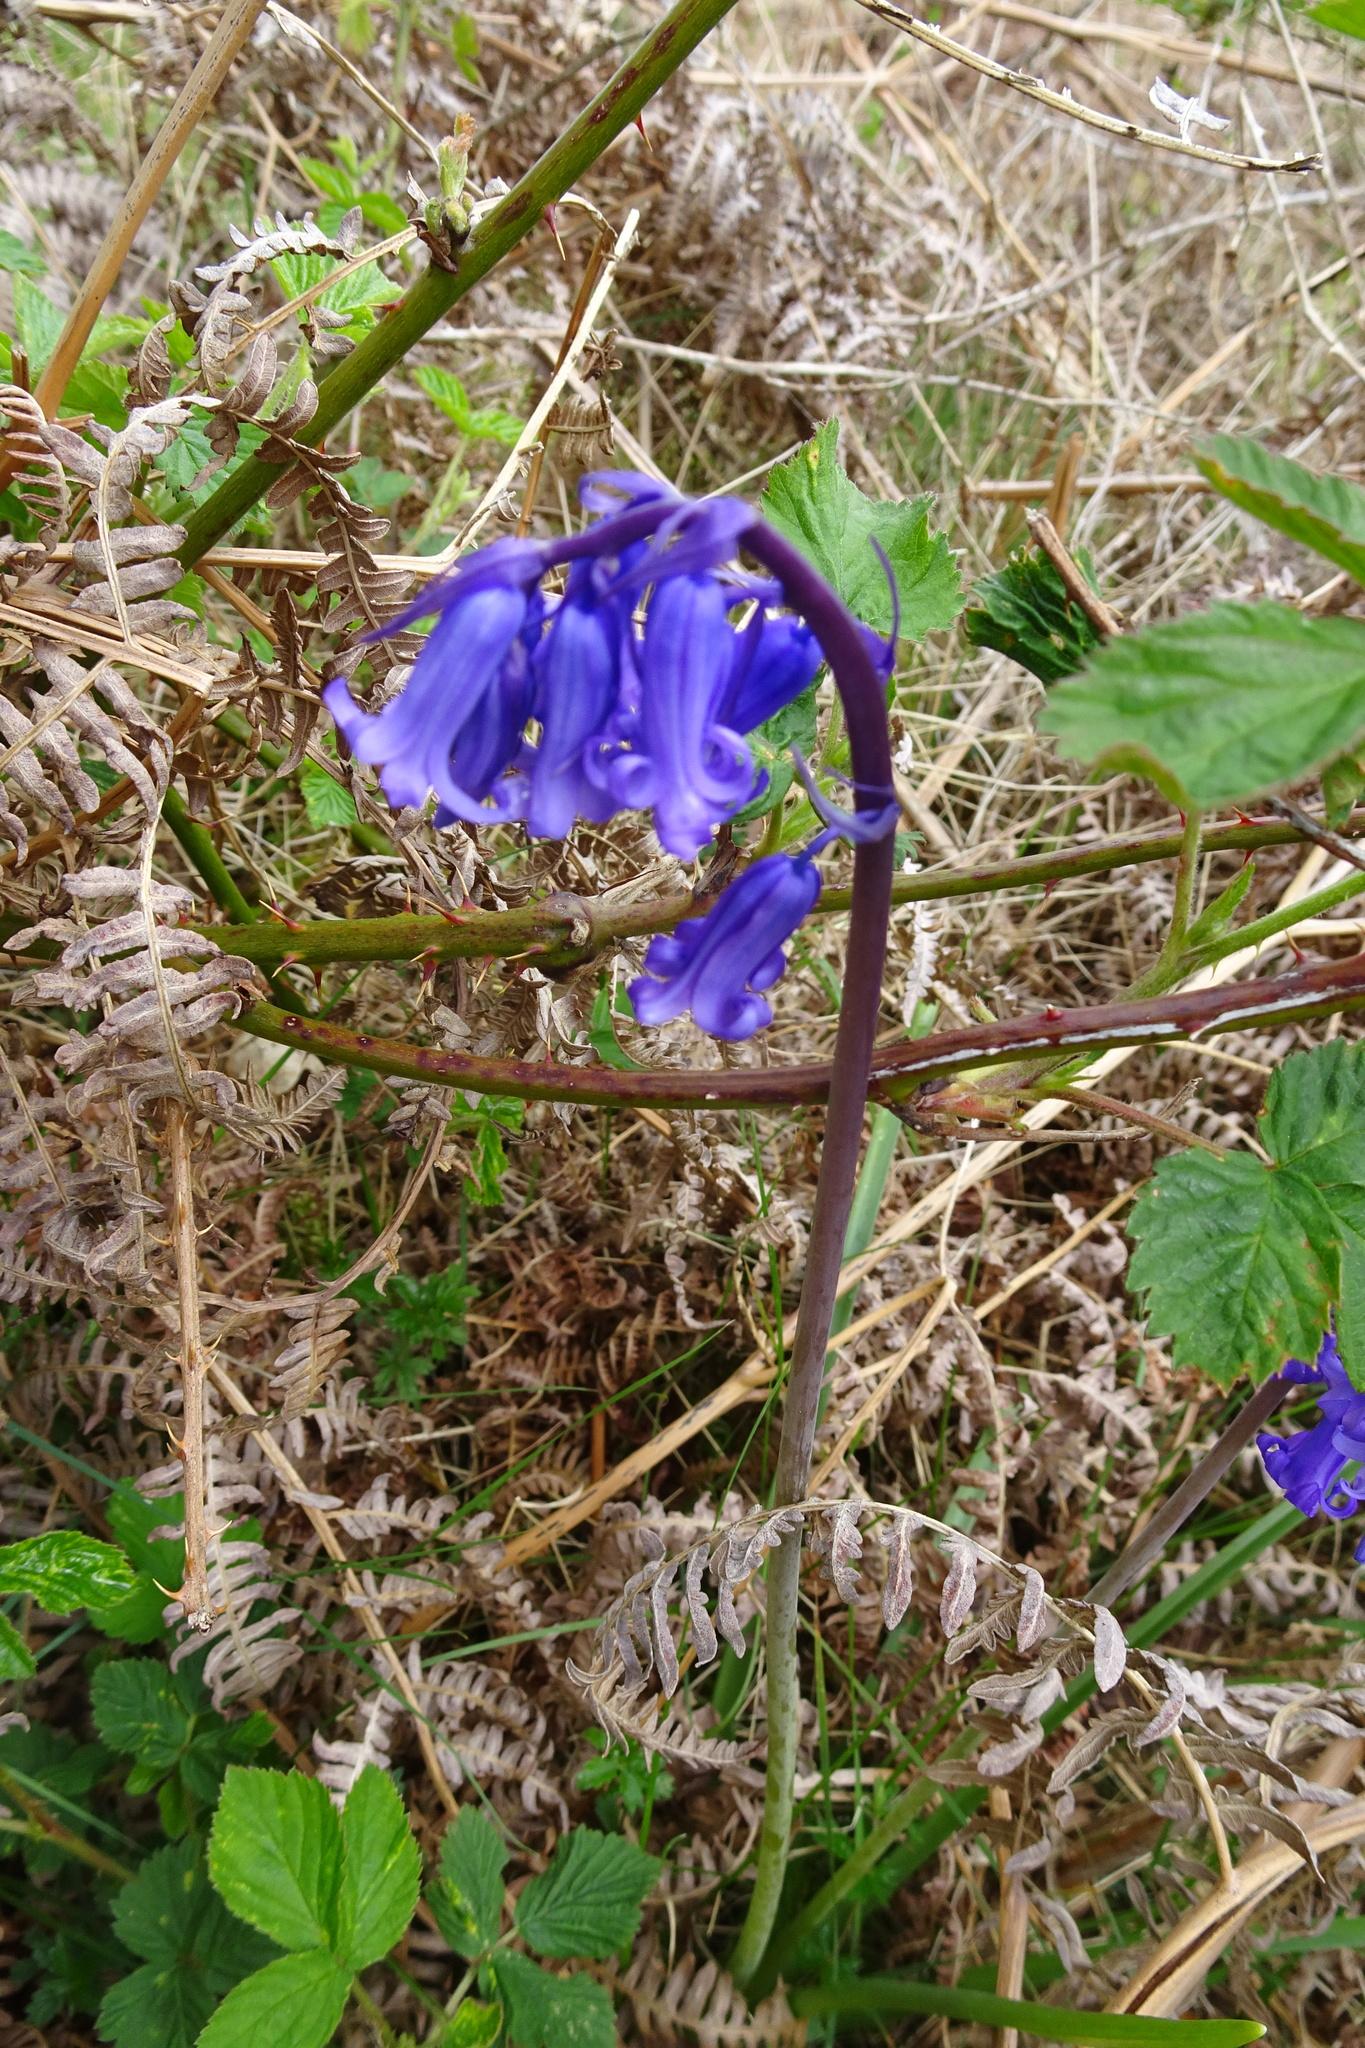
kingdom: Plantae
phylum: Tracheophyta
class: Liliopsida
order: Asparagales
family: Asparagaceae
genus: Hyacinthoides
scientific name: Hyacinthoides non-scripta
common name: Bluebell
